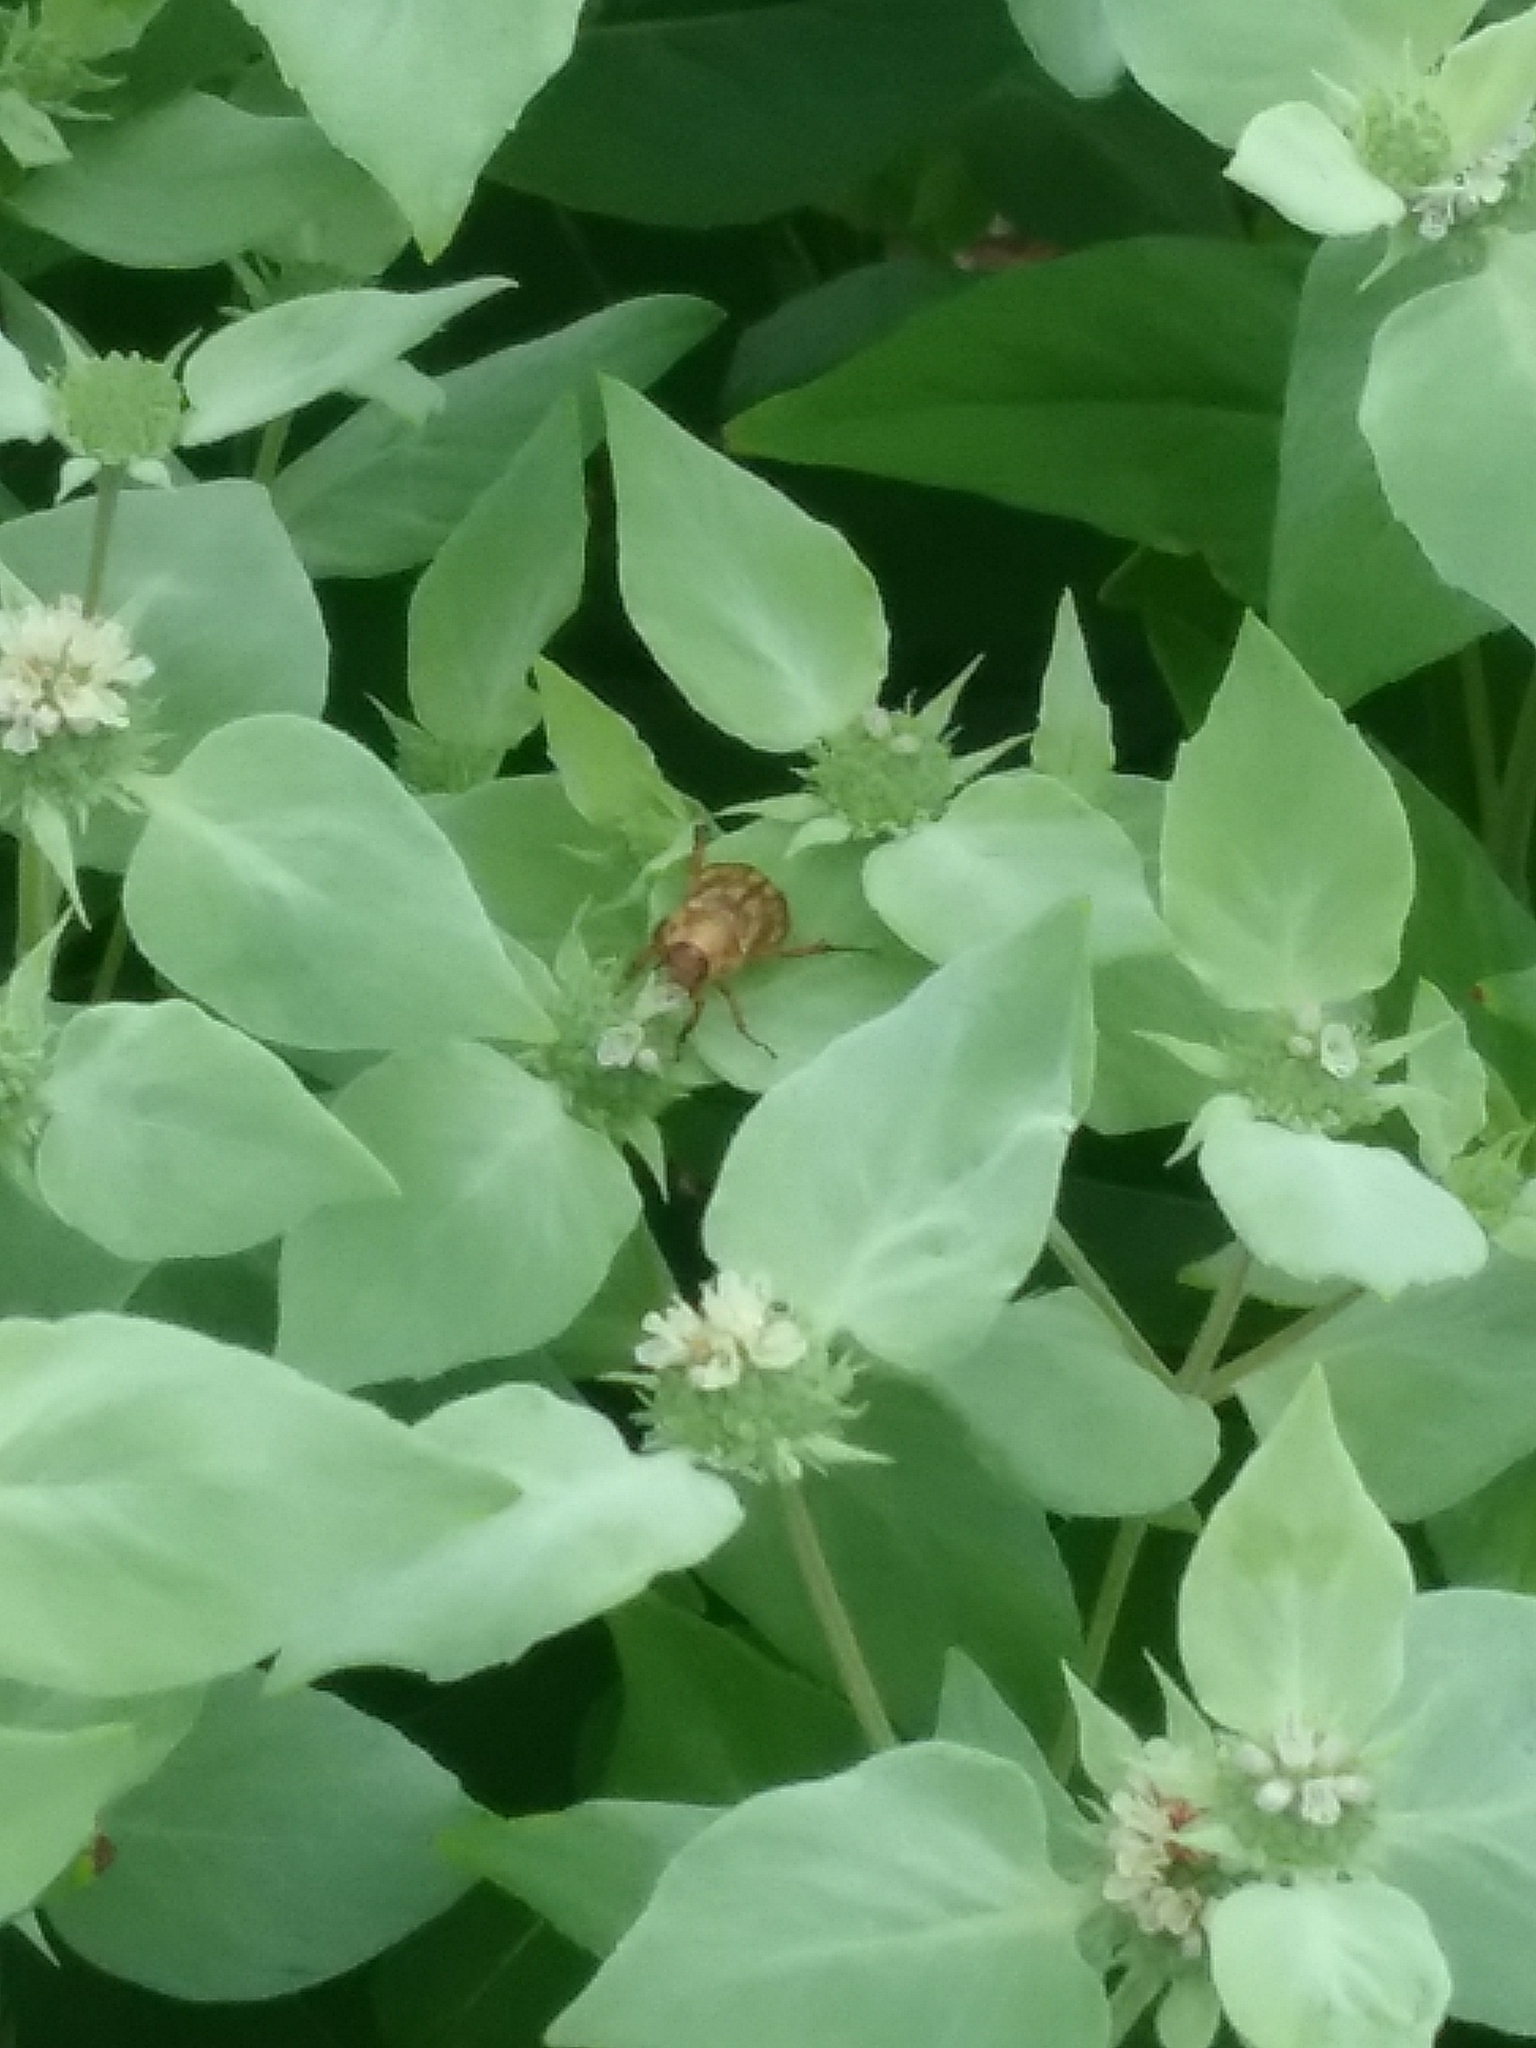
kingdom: Animalia
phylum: Arthropoda
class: Insecta
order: Coleoptera
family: Scarabaeidae
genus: Exomala
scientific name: Exomala orientalis
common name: Oriental beetle
